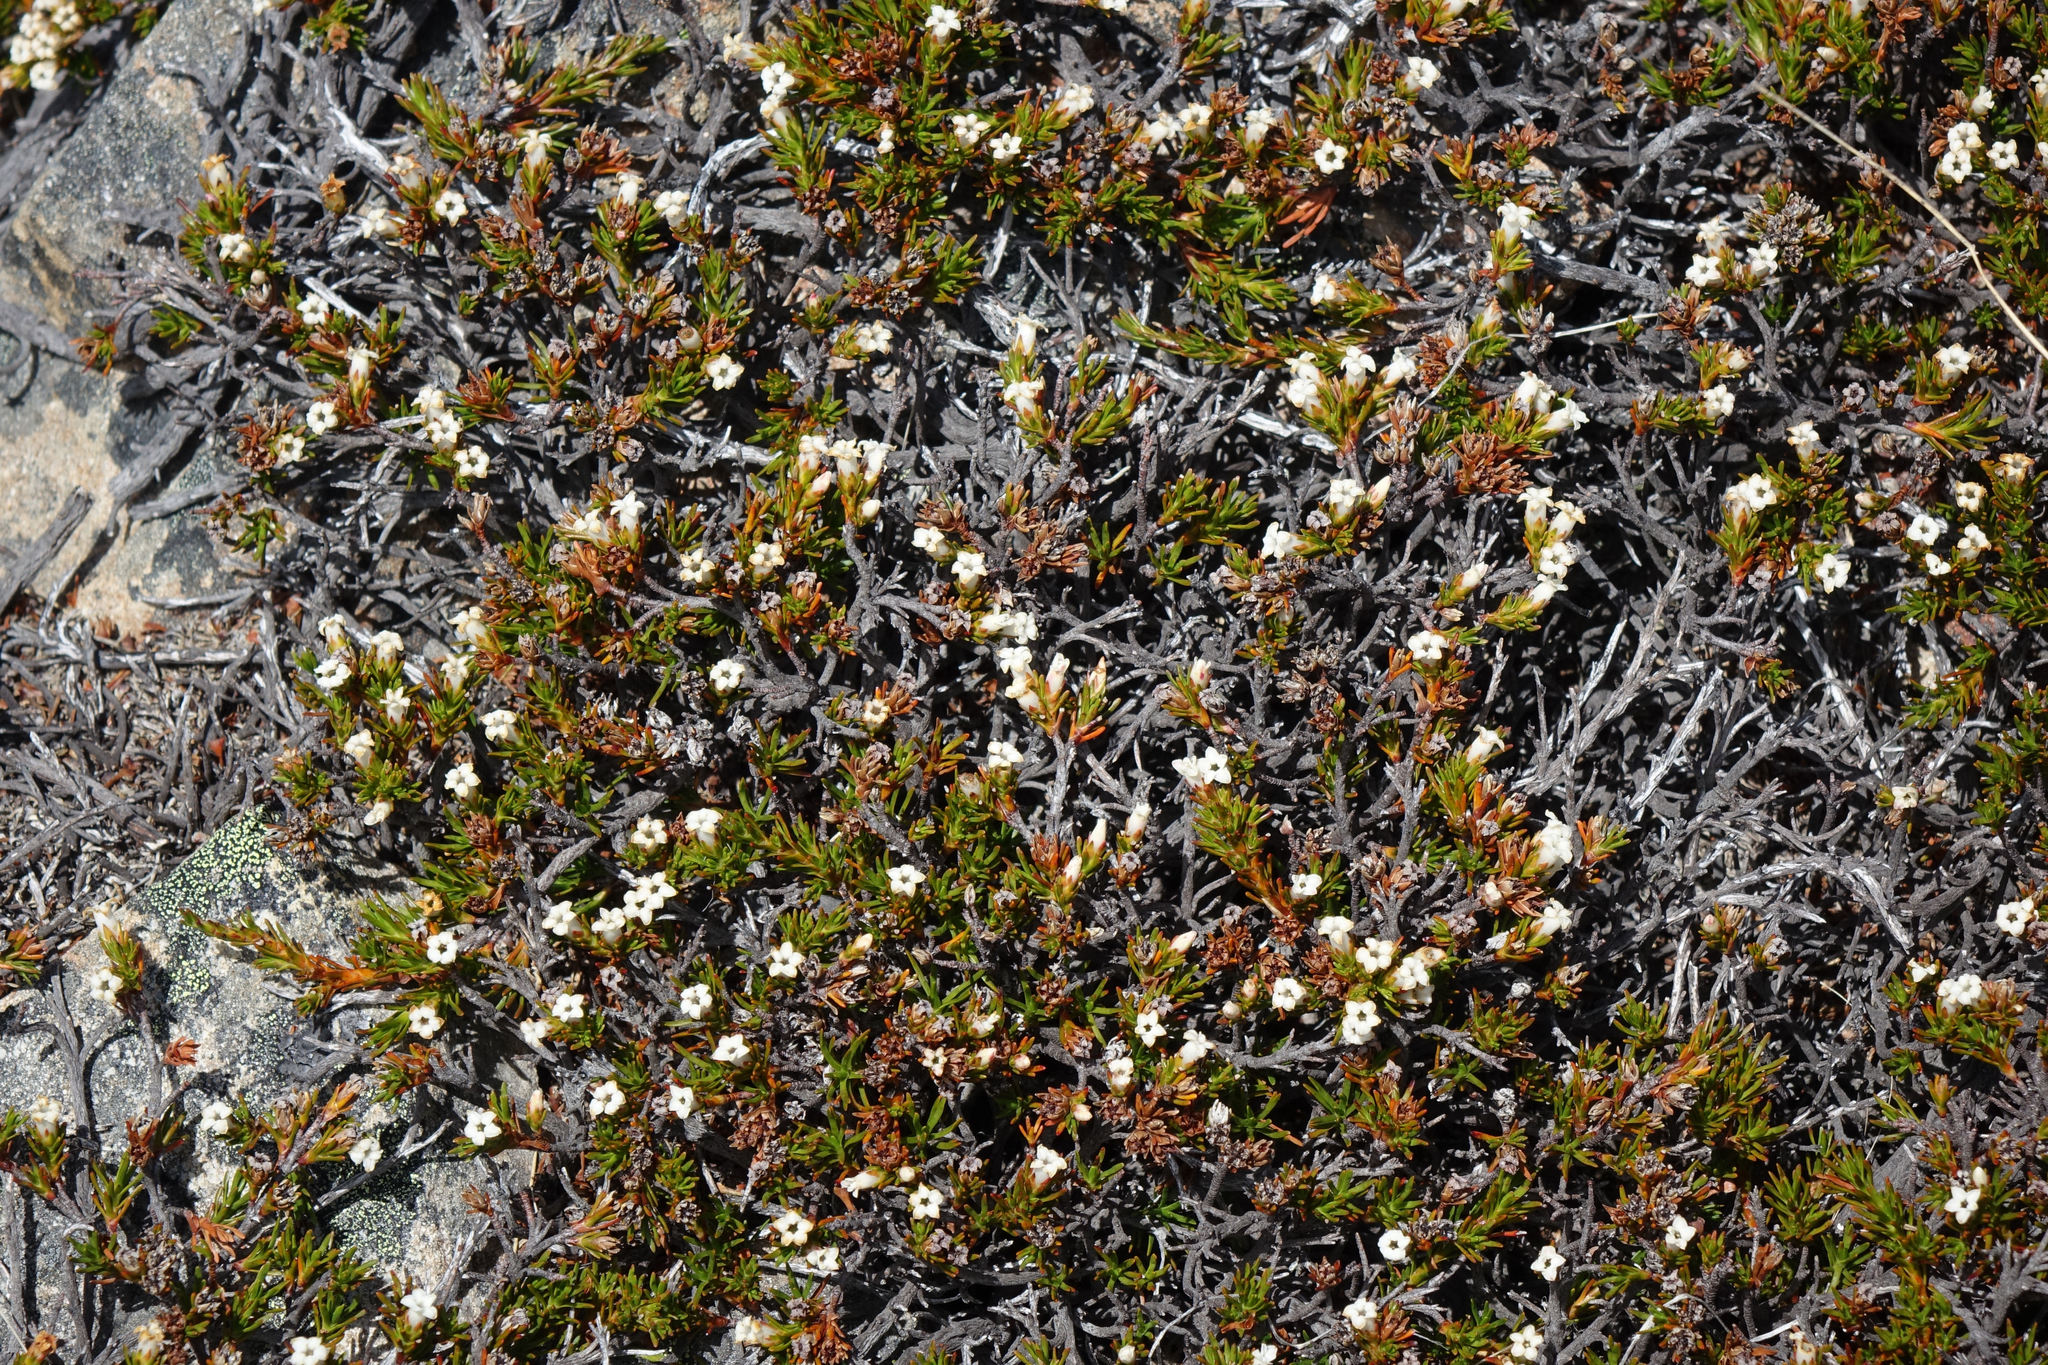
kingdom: Plantae
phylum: Tracheophyta
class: Magnoliopsida
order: Ericales
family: Ericaceae
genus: Dracophyllum
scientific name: Dracophyllum pronum
